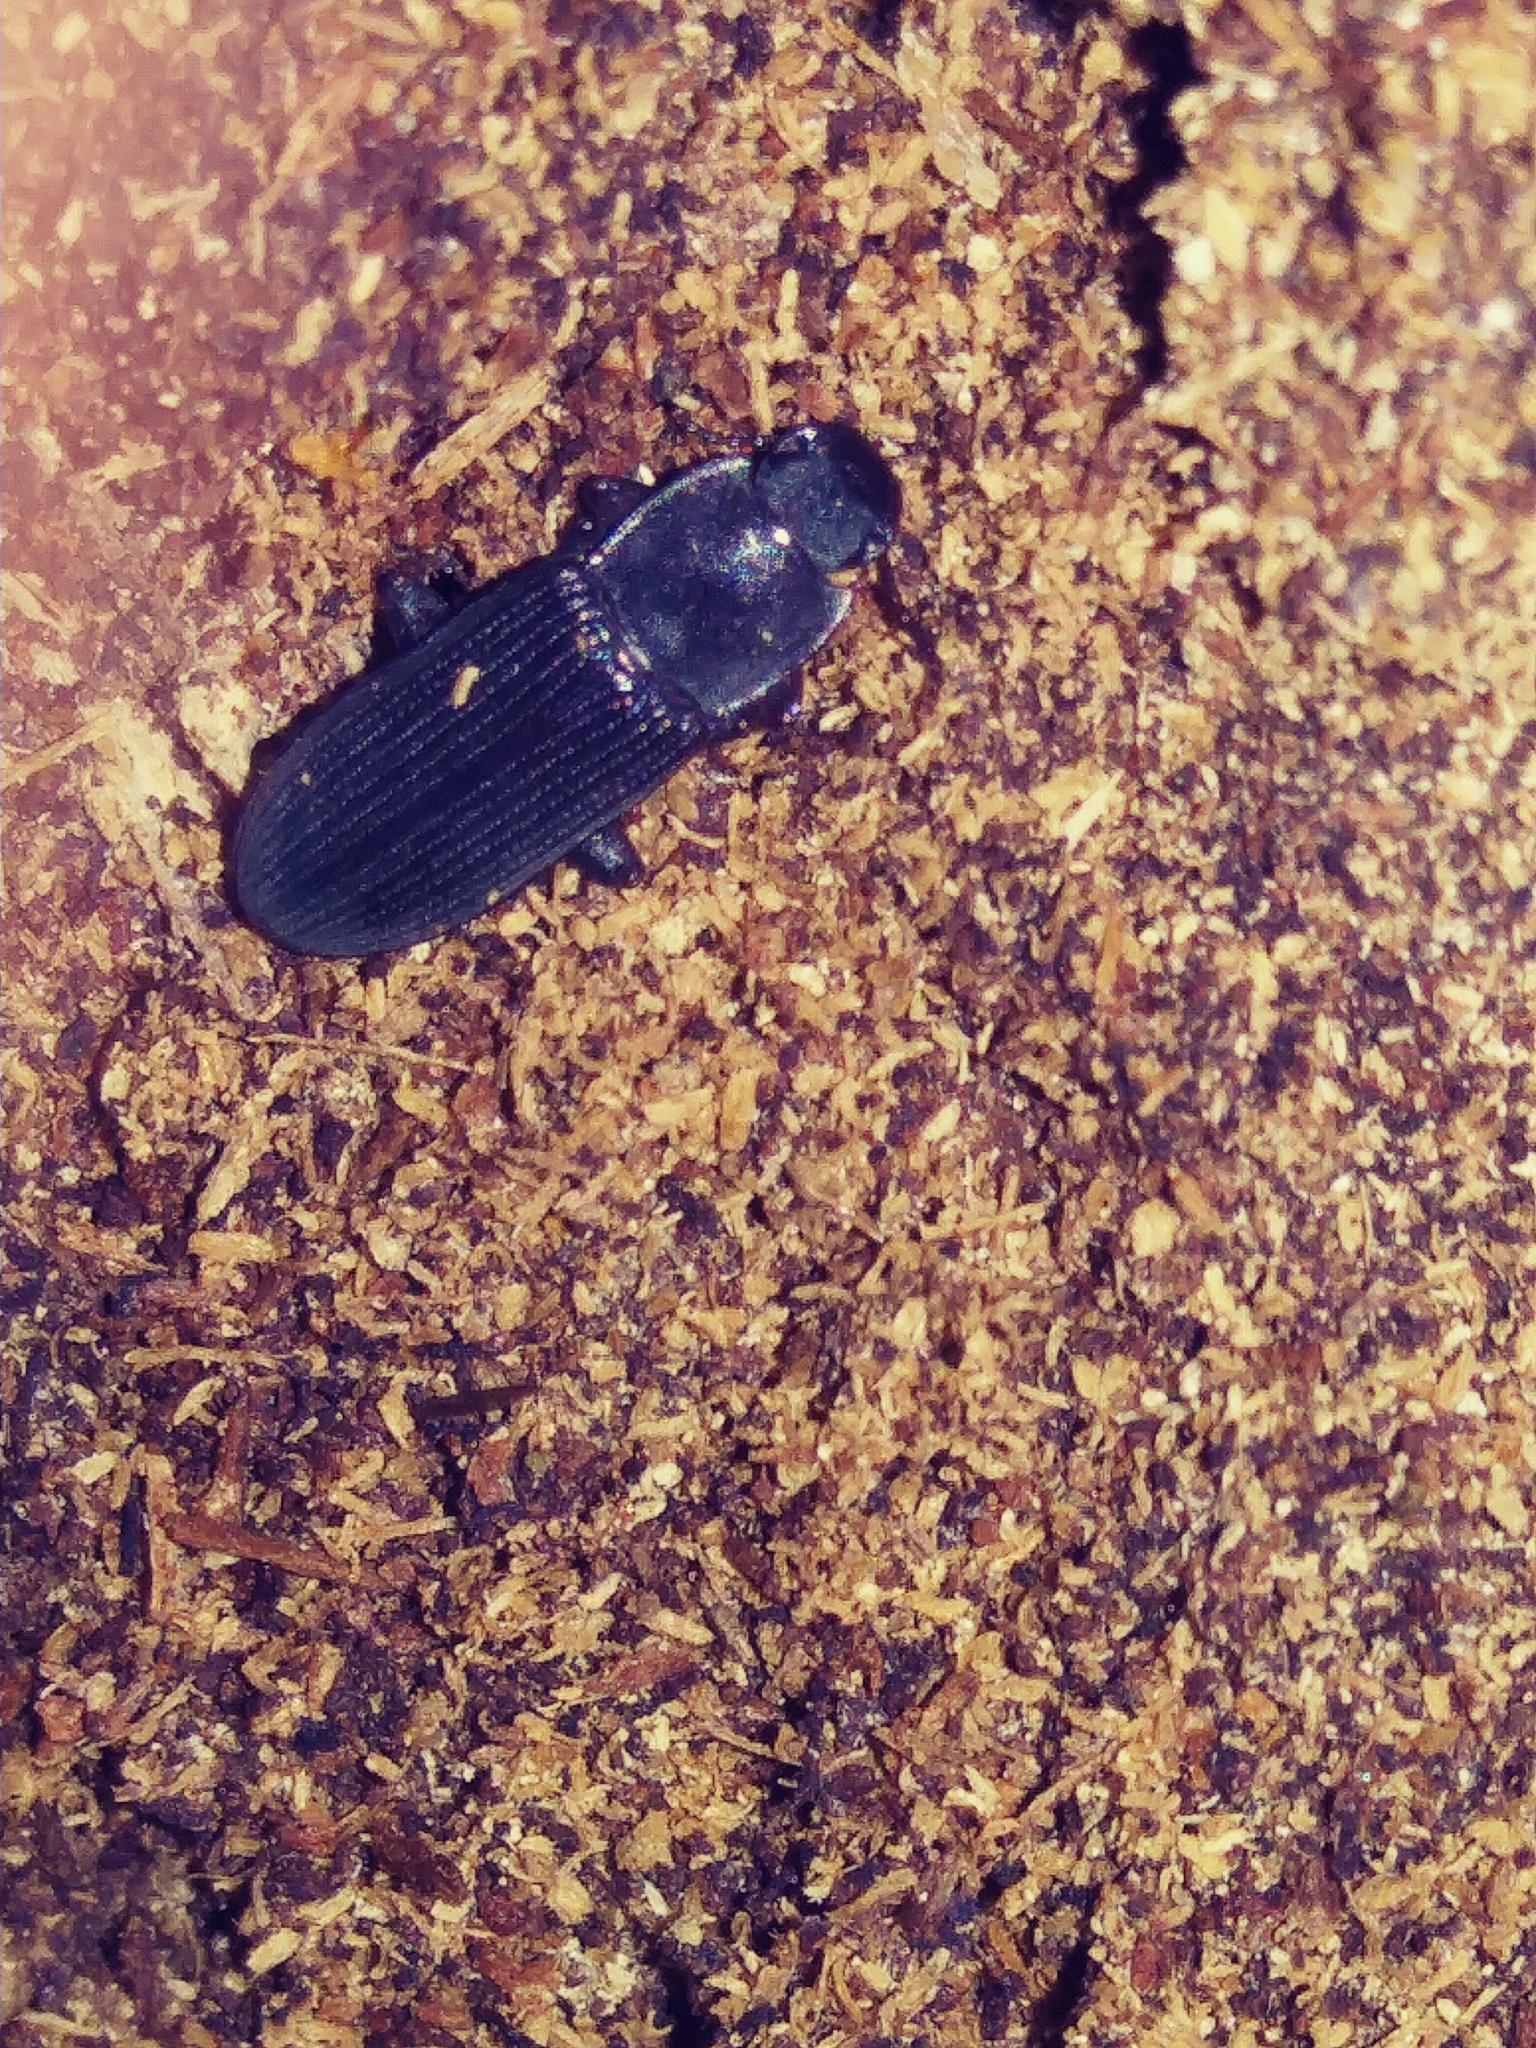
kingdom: Animalia
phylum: Arthropoda
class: Insecta
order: Coleoptera
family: Tenebrionidae
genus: Idiobates
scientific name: Idiobates castaneus
